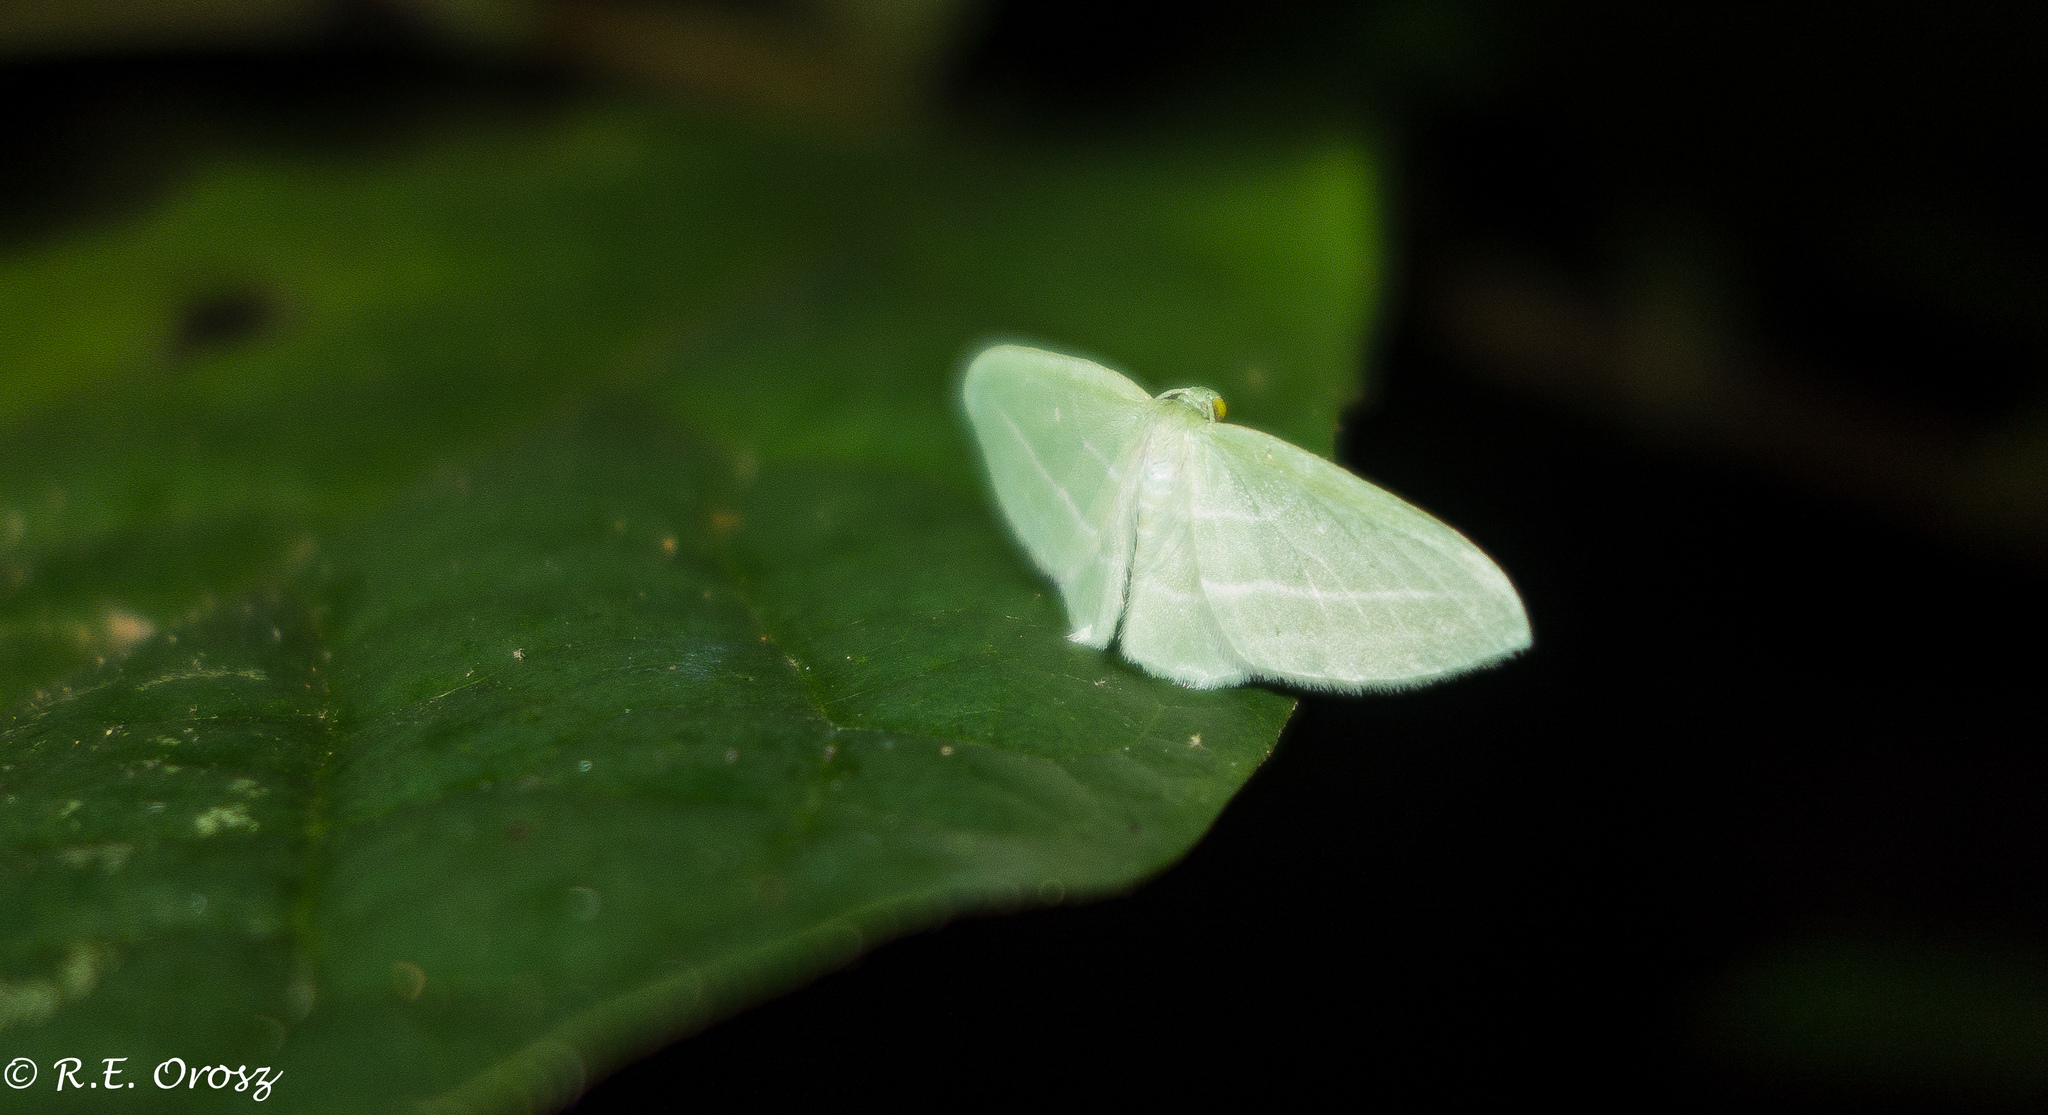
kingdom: Animalia
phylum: Arthropoda
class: Insecta
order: Lepidoptera
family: Geometridae
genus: Dyspteris
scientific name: Dyspteris abortivaria
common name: Bad-wing
